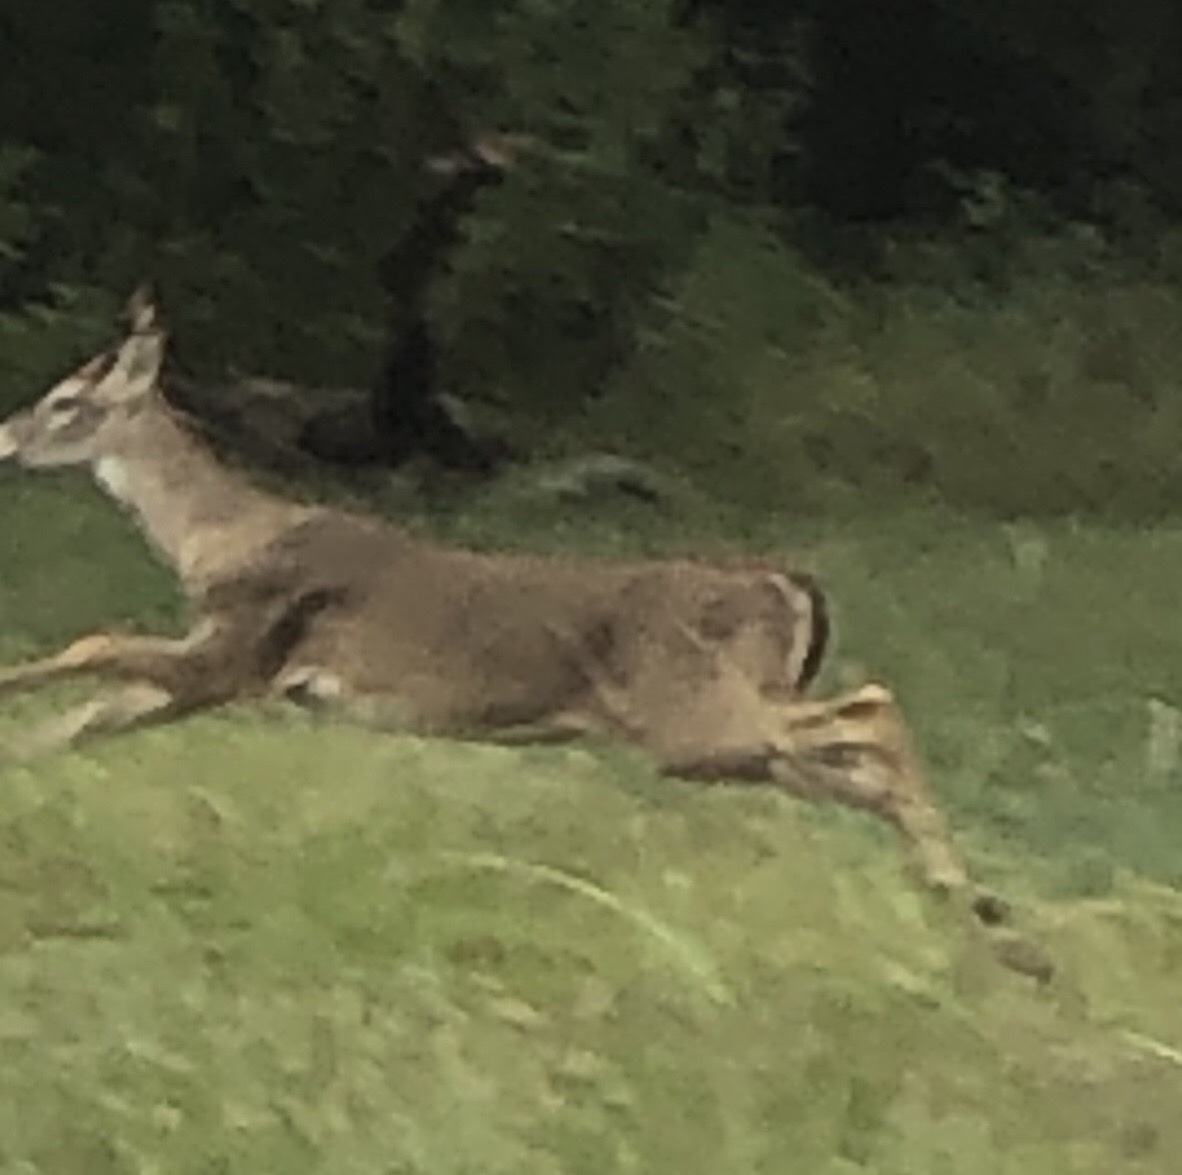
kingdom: Animalia
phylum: Chordata
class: Mammalia
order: Artiodactyla
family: Cervidae
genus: Odocoileus
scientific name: Odocoileus virginianus
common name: White-tailed deer
